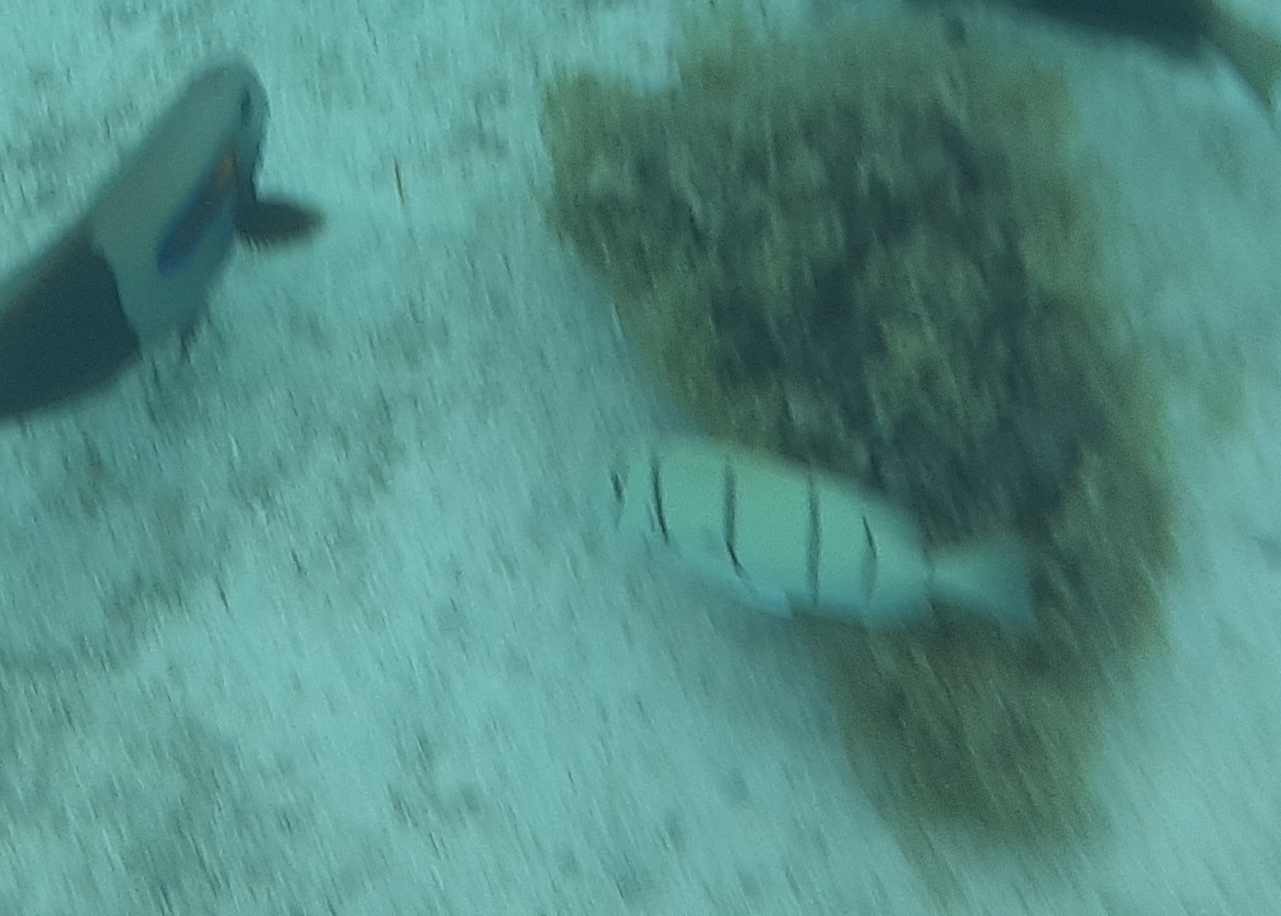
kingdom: Animalia
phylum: Chordata
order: Perciformes
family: Acanthuridae
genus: Acanthurus
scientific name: Acanthurus triostegus
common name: Convict surgeonfish
